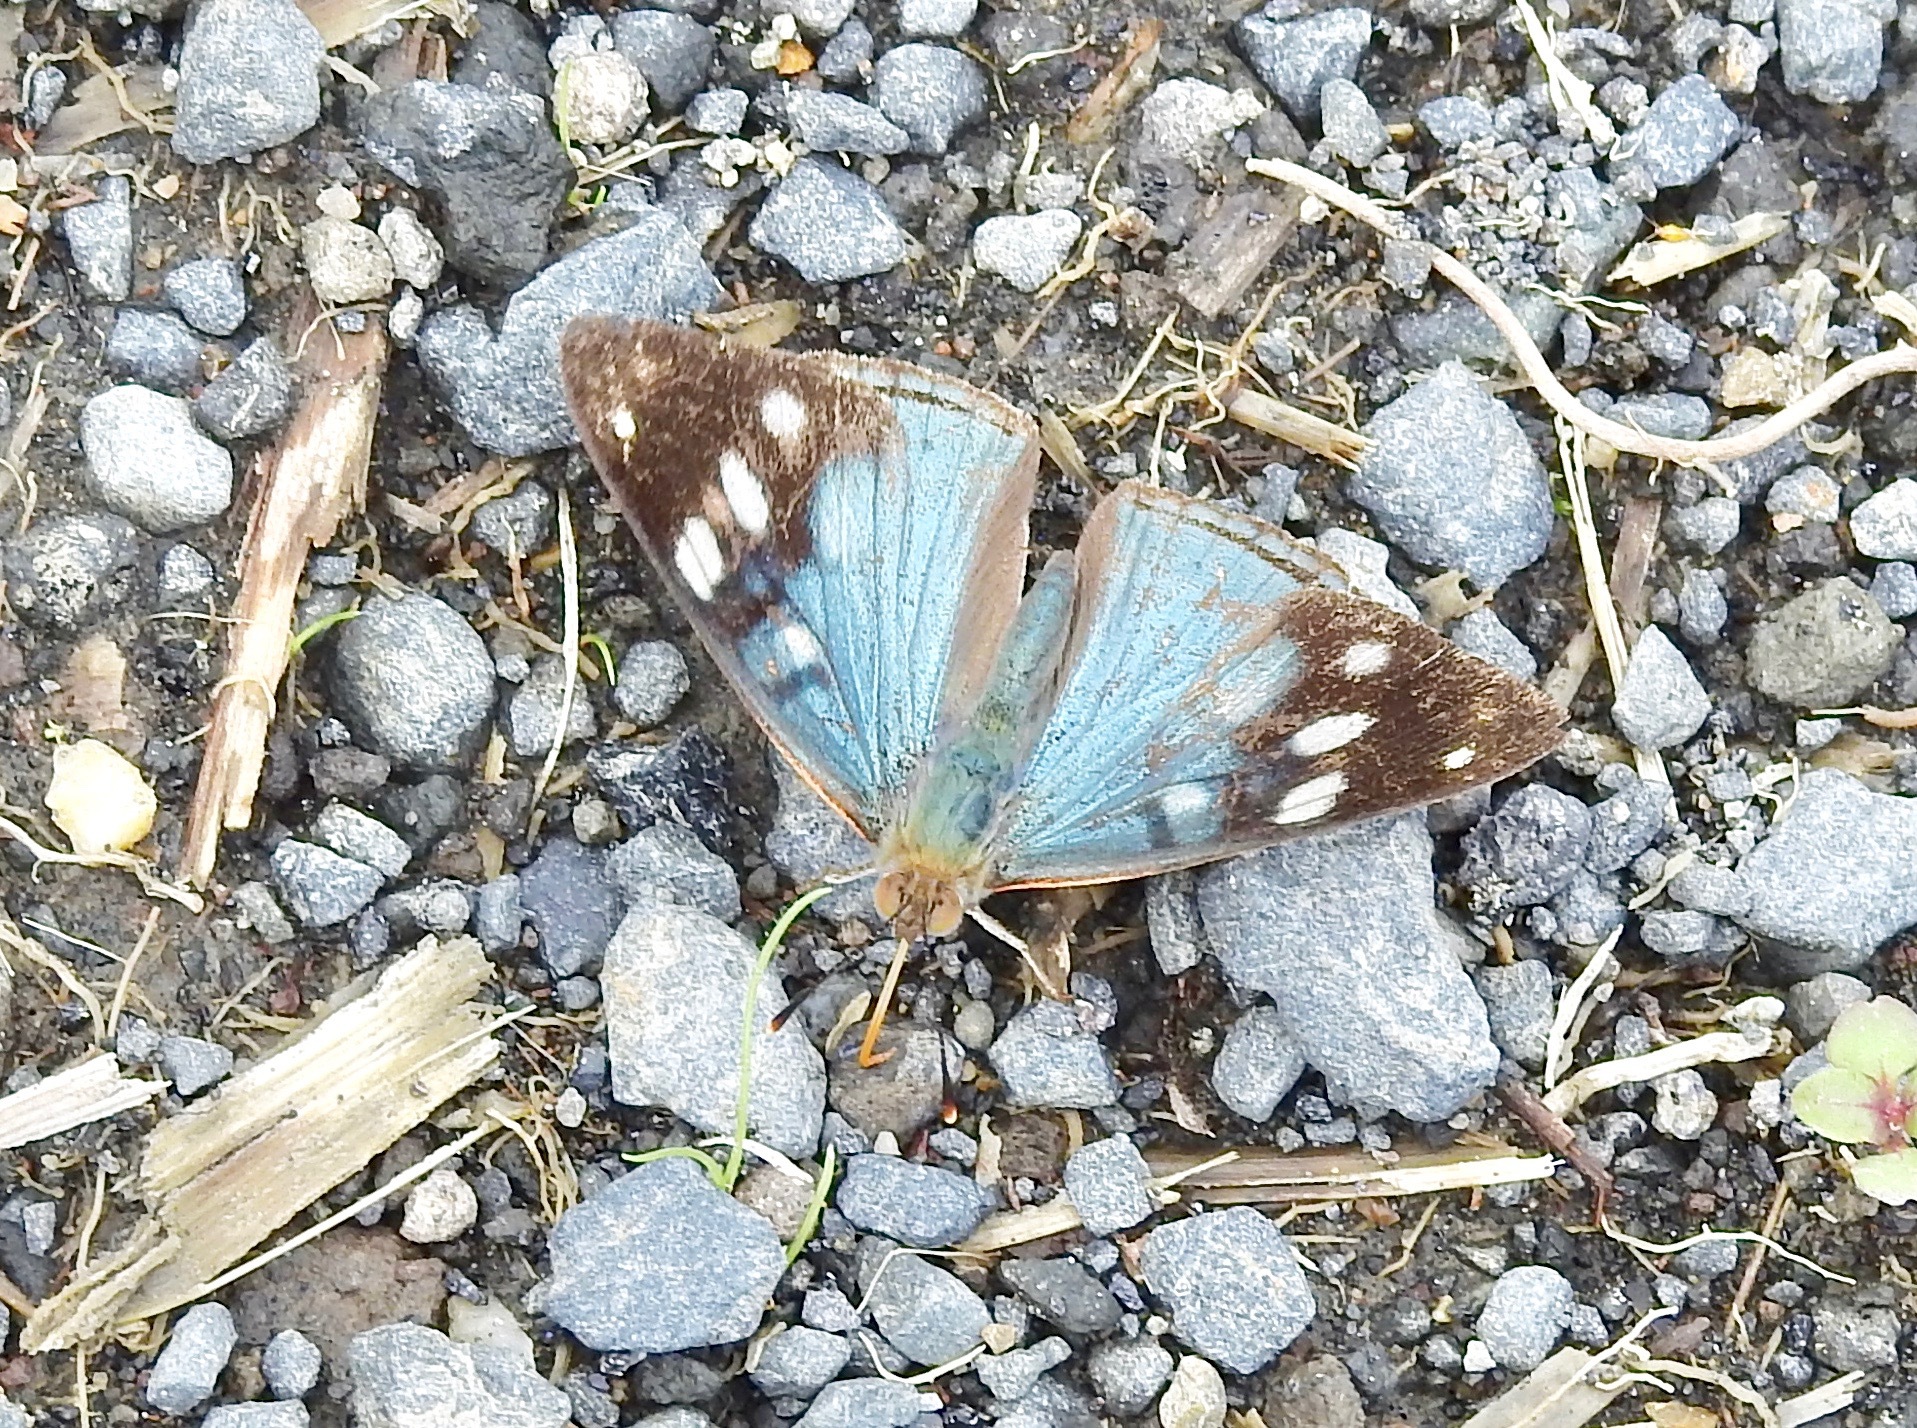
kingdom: Animalia
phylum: Arthropoda
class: Insecta
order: Lepidoptera
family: Nymphalidae
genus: Dynamine
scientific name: Dynamine tithia
